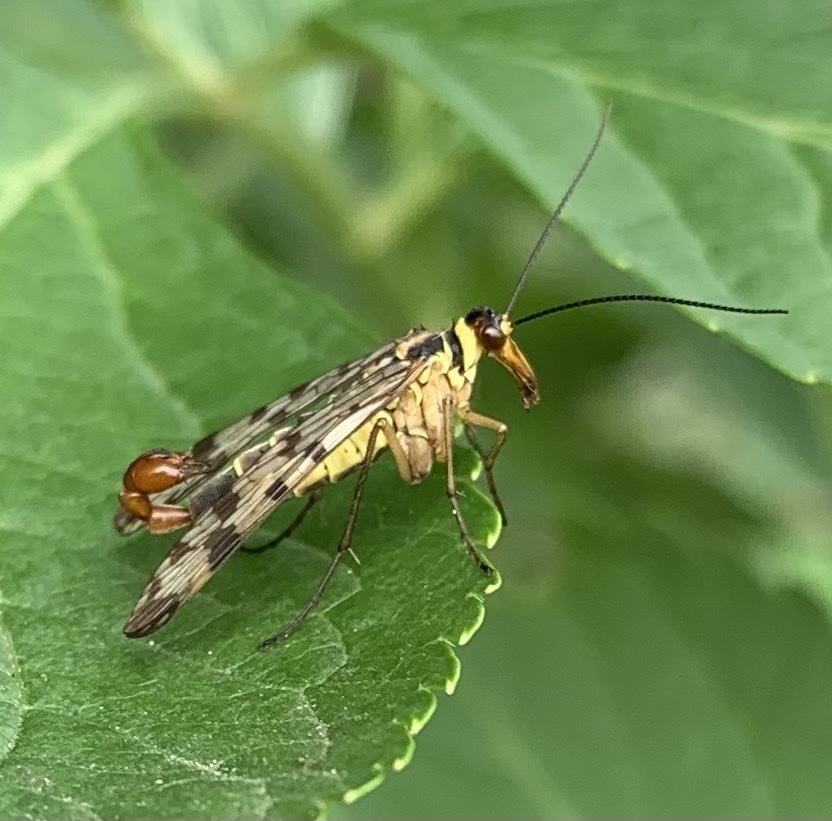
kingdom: Animalia
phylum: Arthropoda
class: Insecta
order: Mecoptera
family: Panorpidae
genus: Panorpa
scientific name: Panorpa communis
